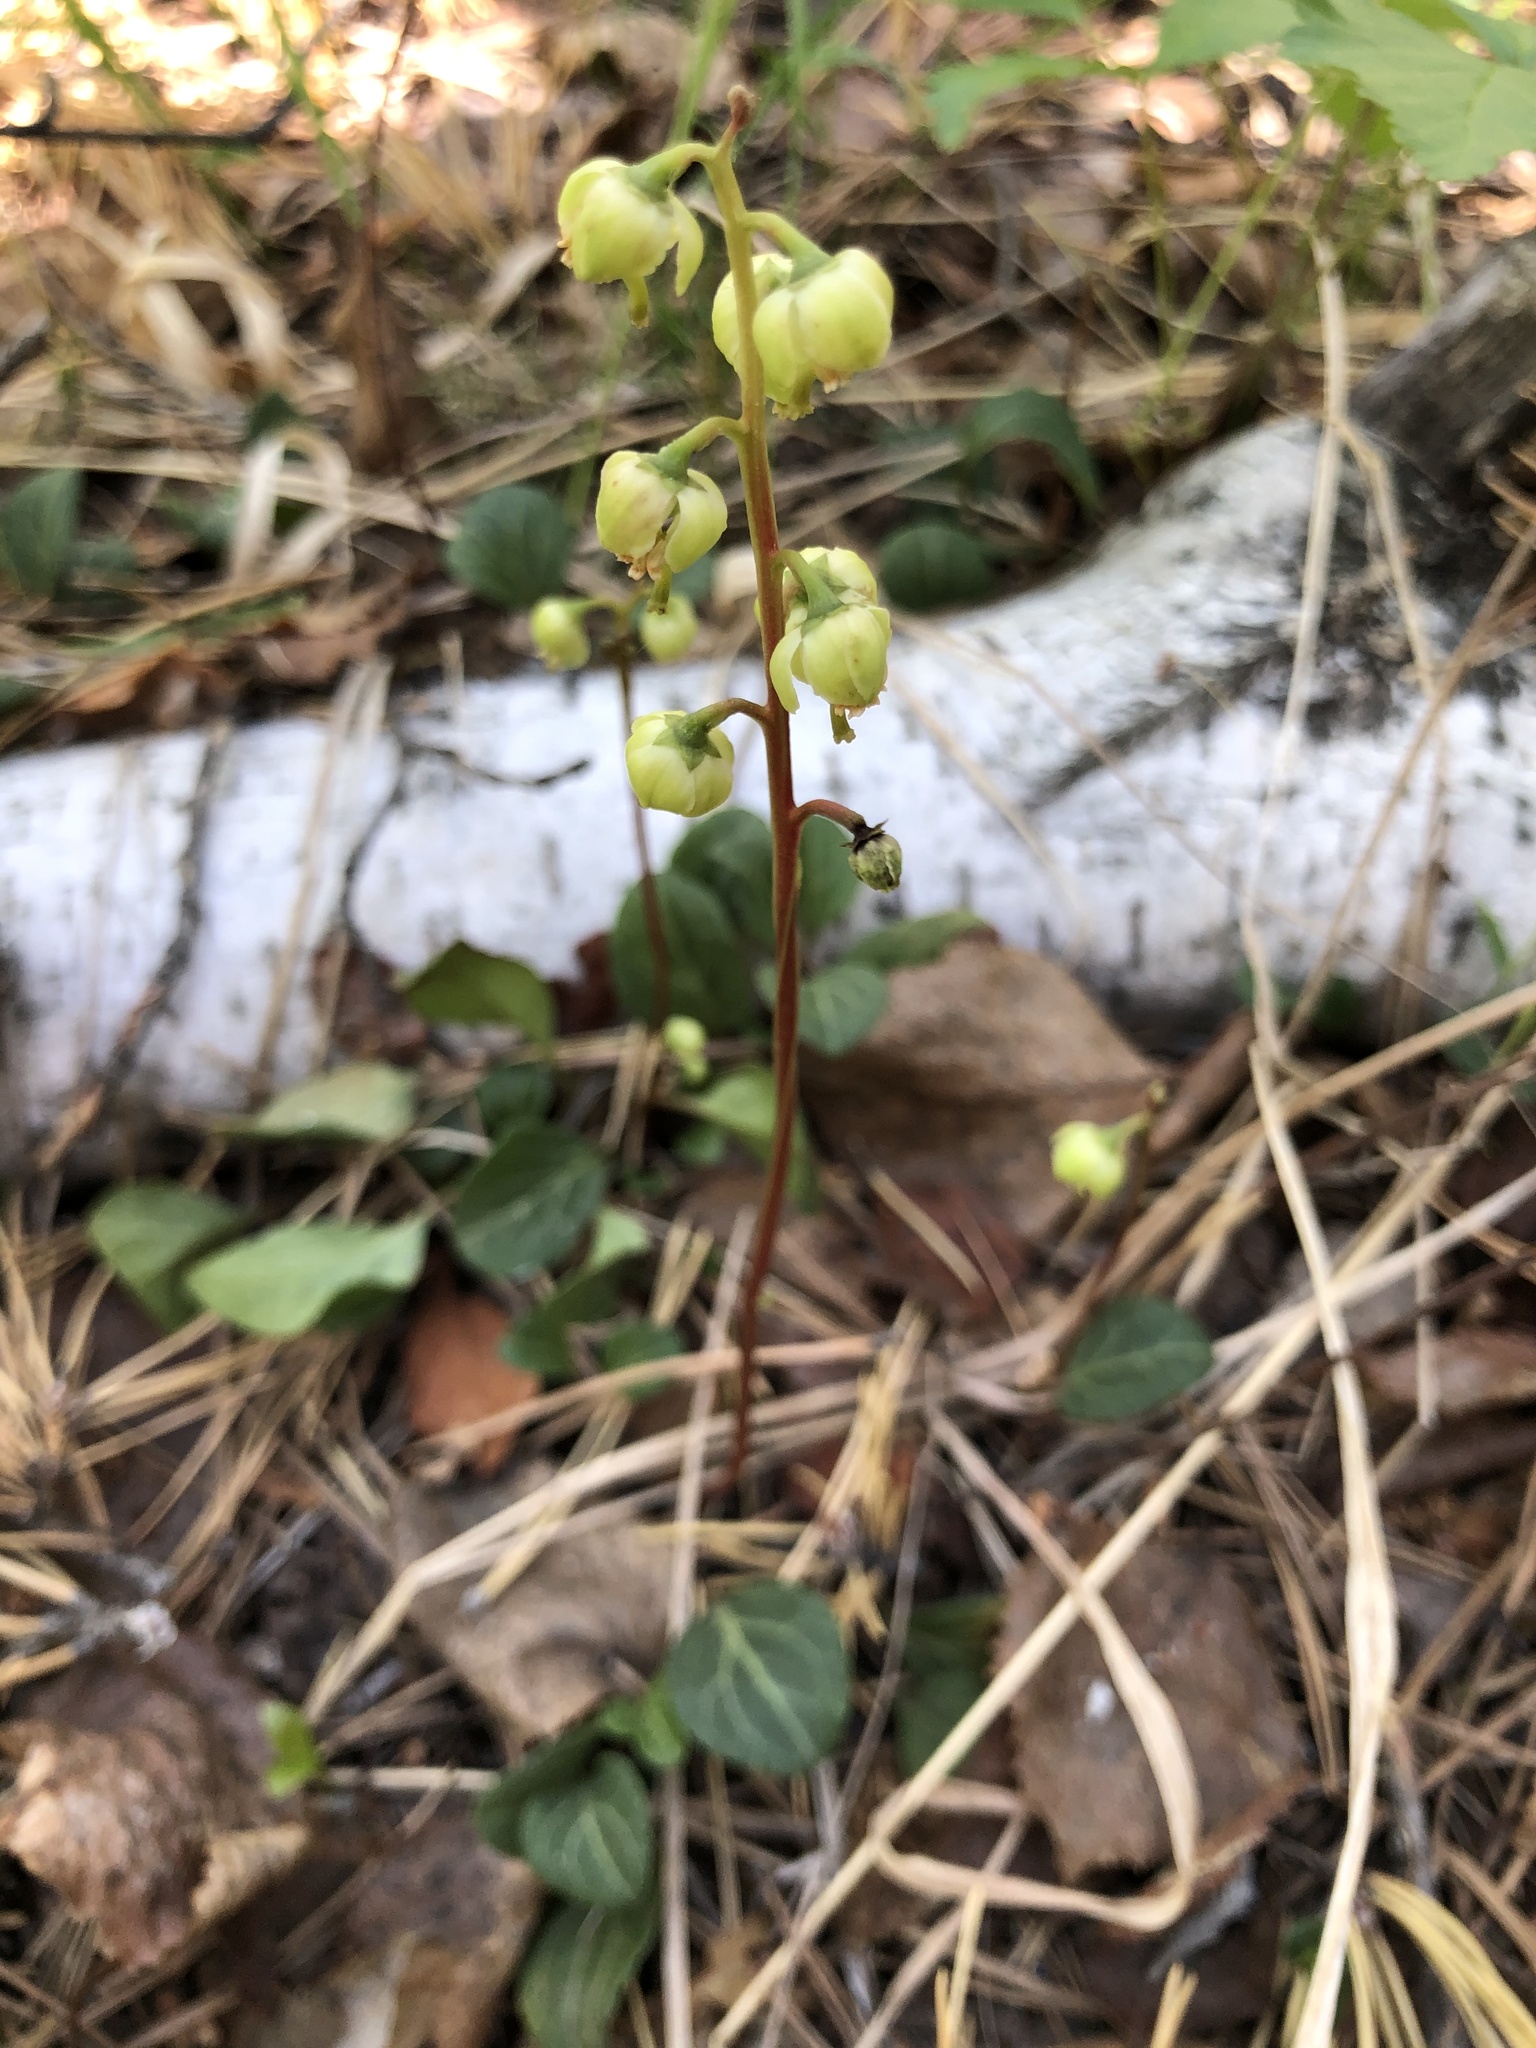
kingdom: Plantae
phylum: Tracheophyta
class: Magnoliopsida
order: Ericales
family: Ericaceae
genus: Pyrola
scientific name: Pyrola chlorantha
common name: Green wintergreen
